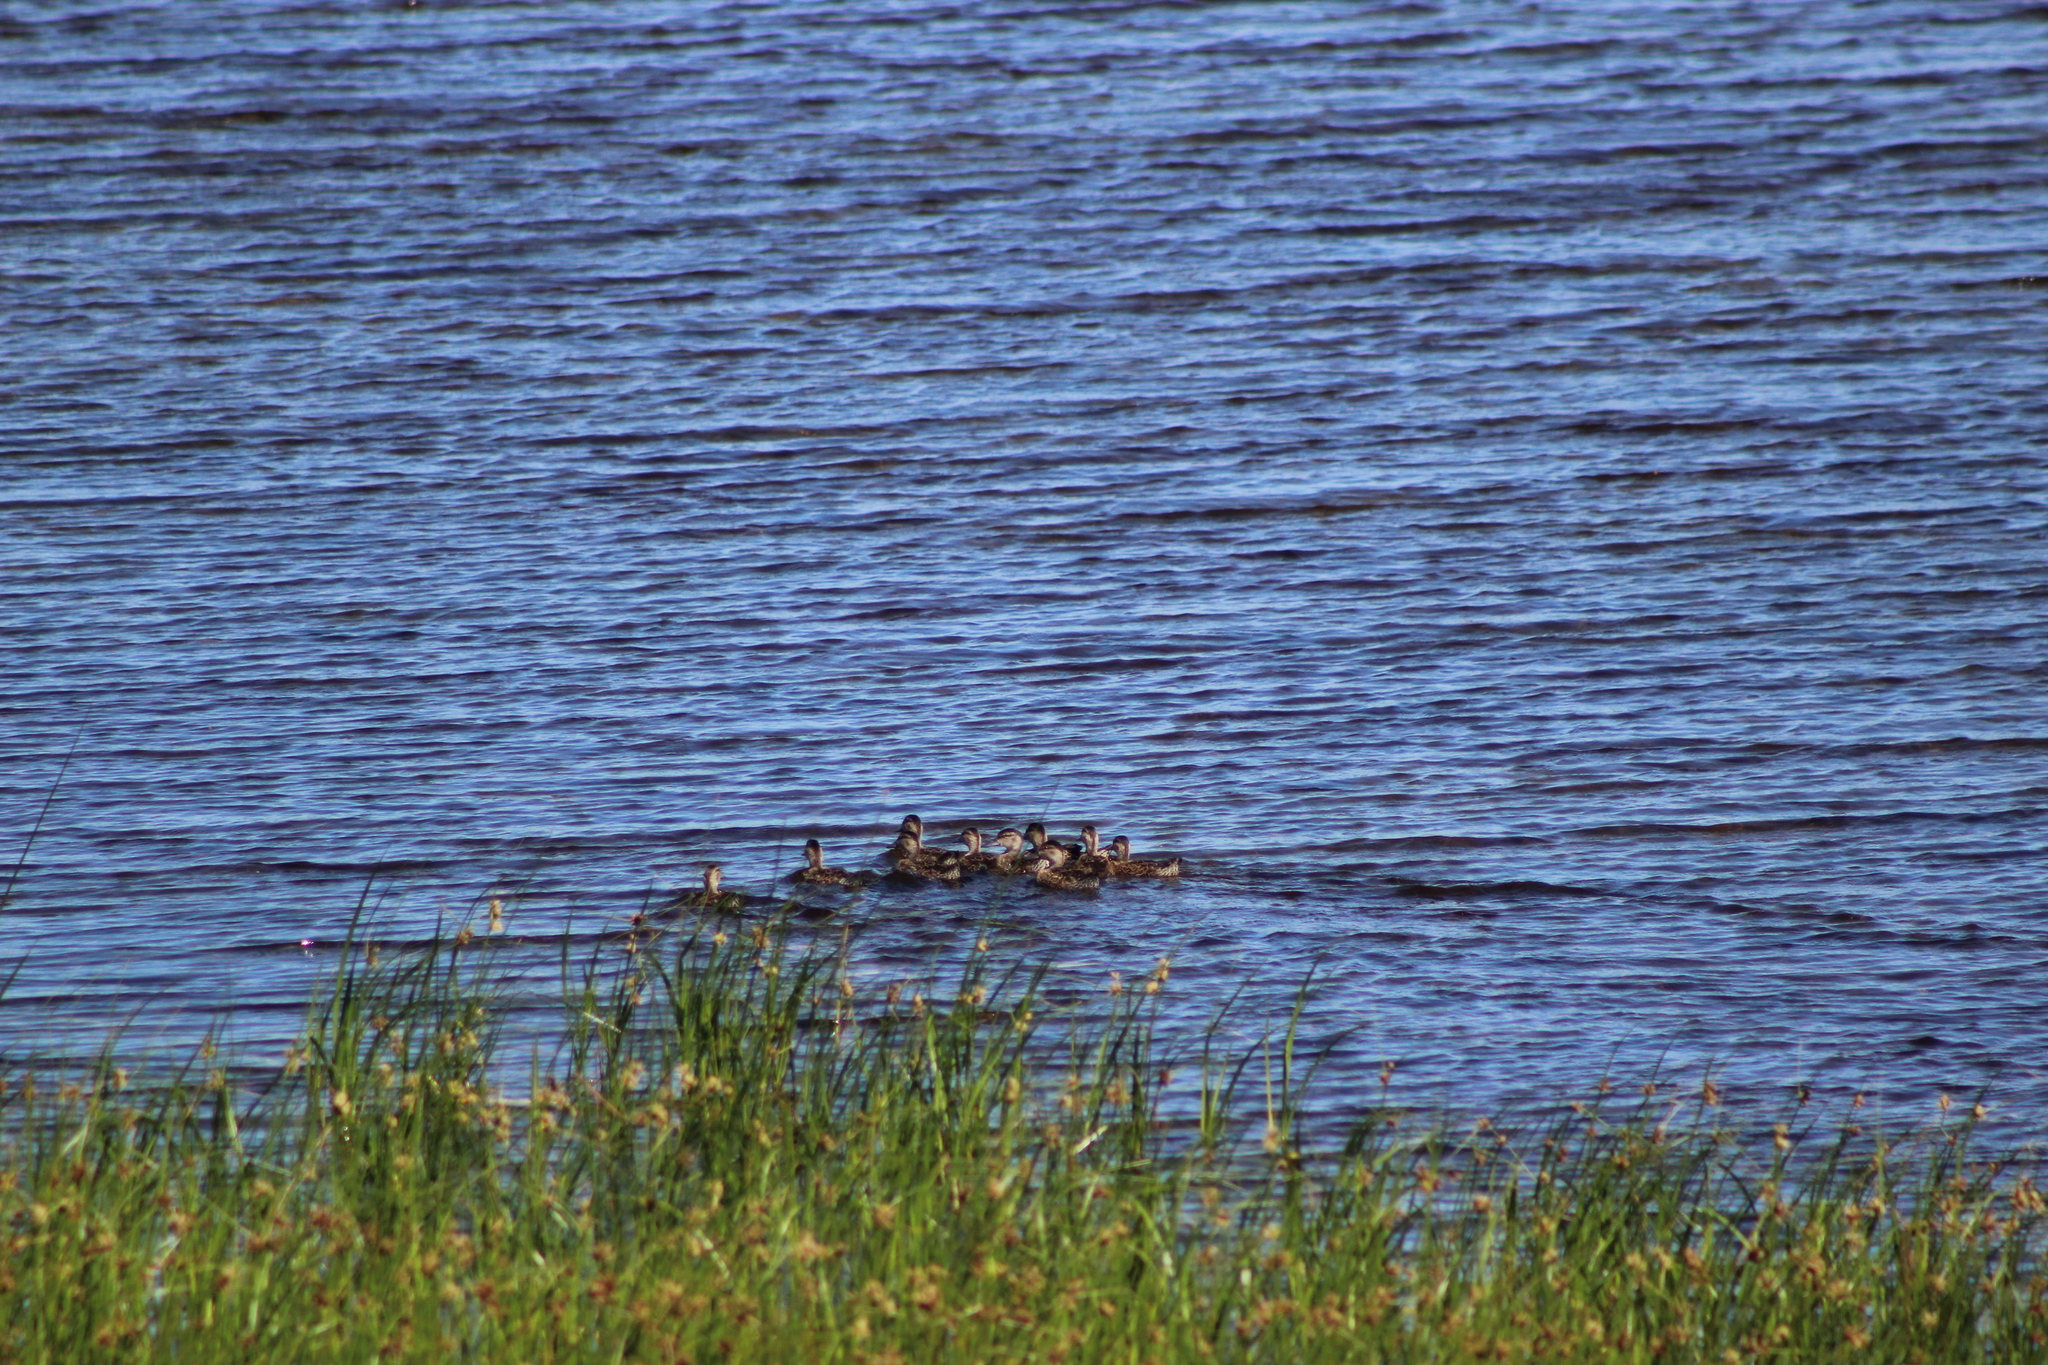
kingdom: Animalia
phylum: Chordata
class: Aves
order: Anseriformes
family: Anatidae
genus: Spatula
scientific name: Spatula discors
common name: Blue-winged teal
